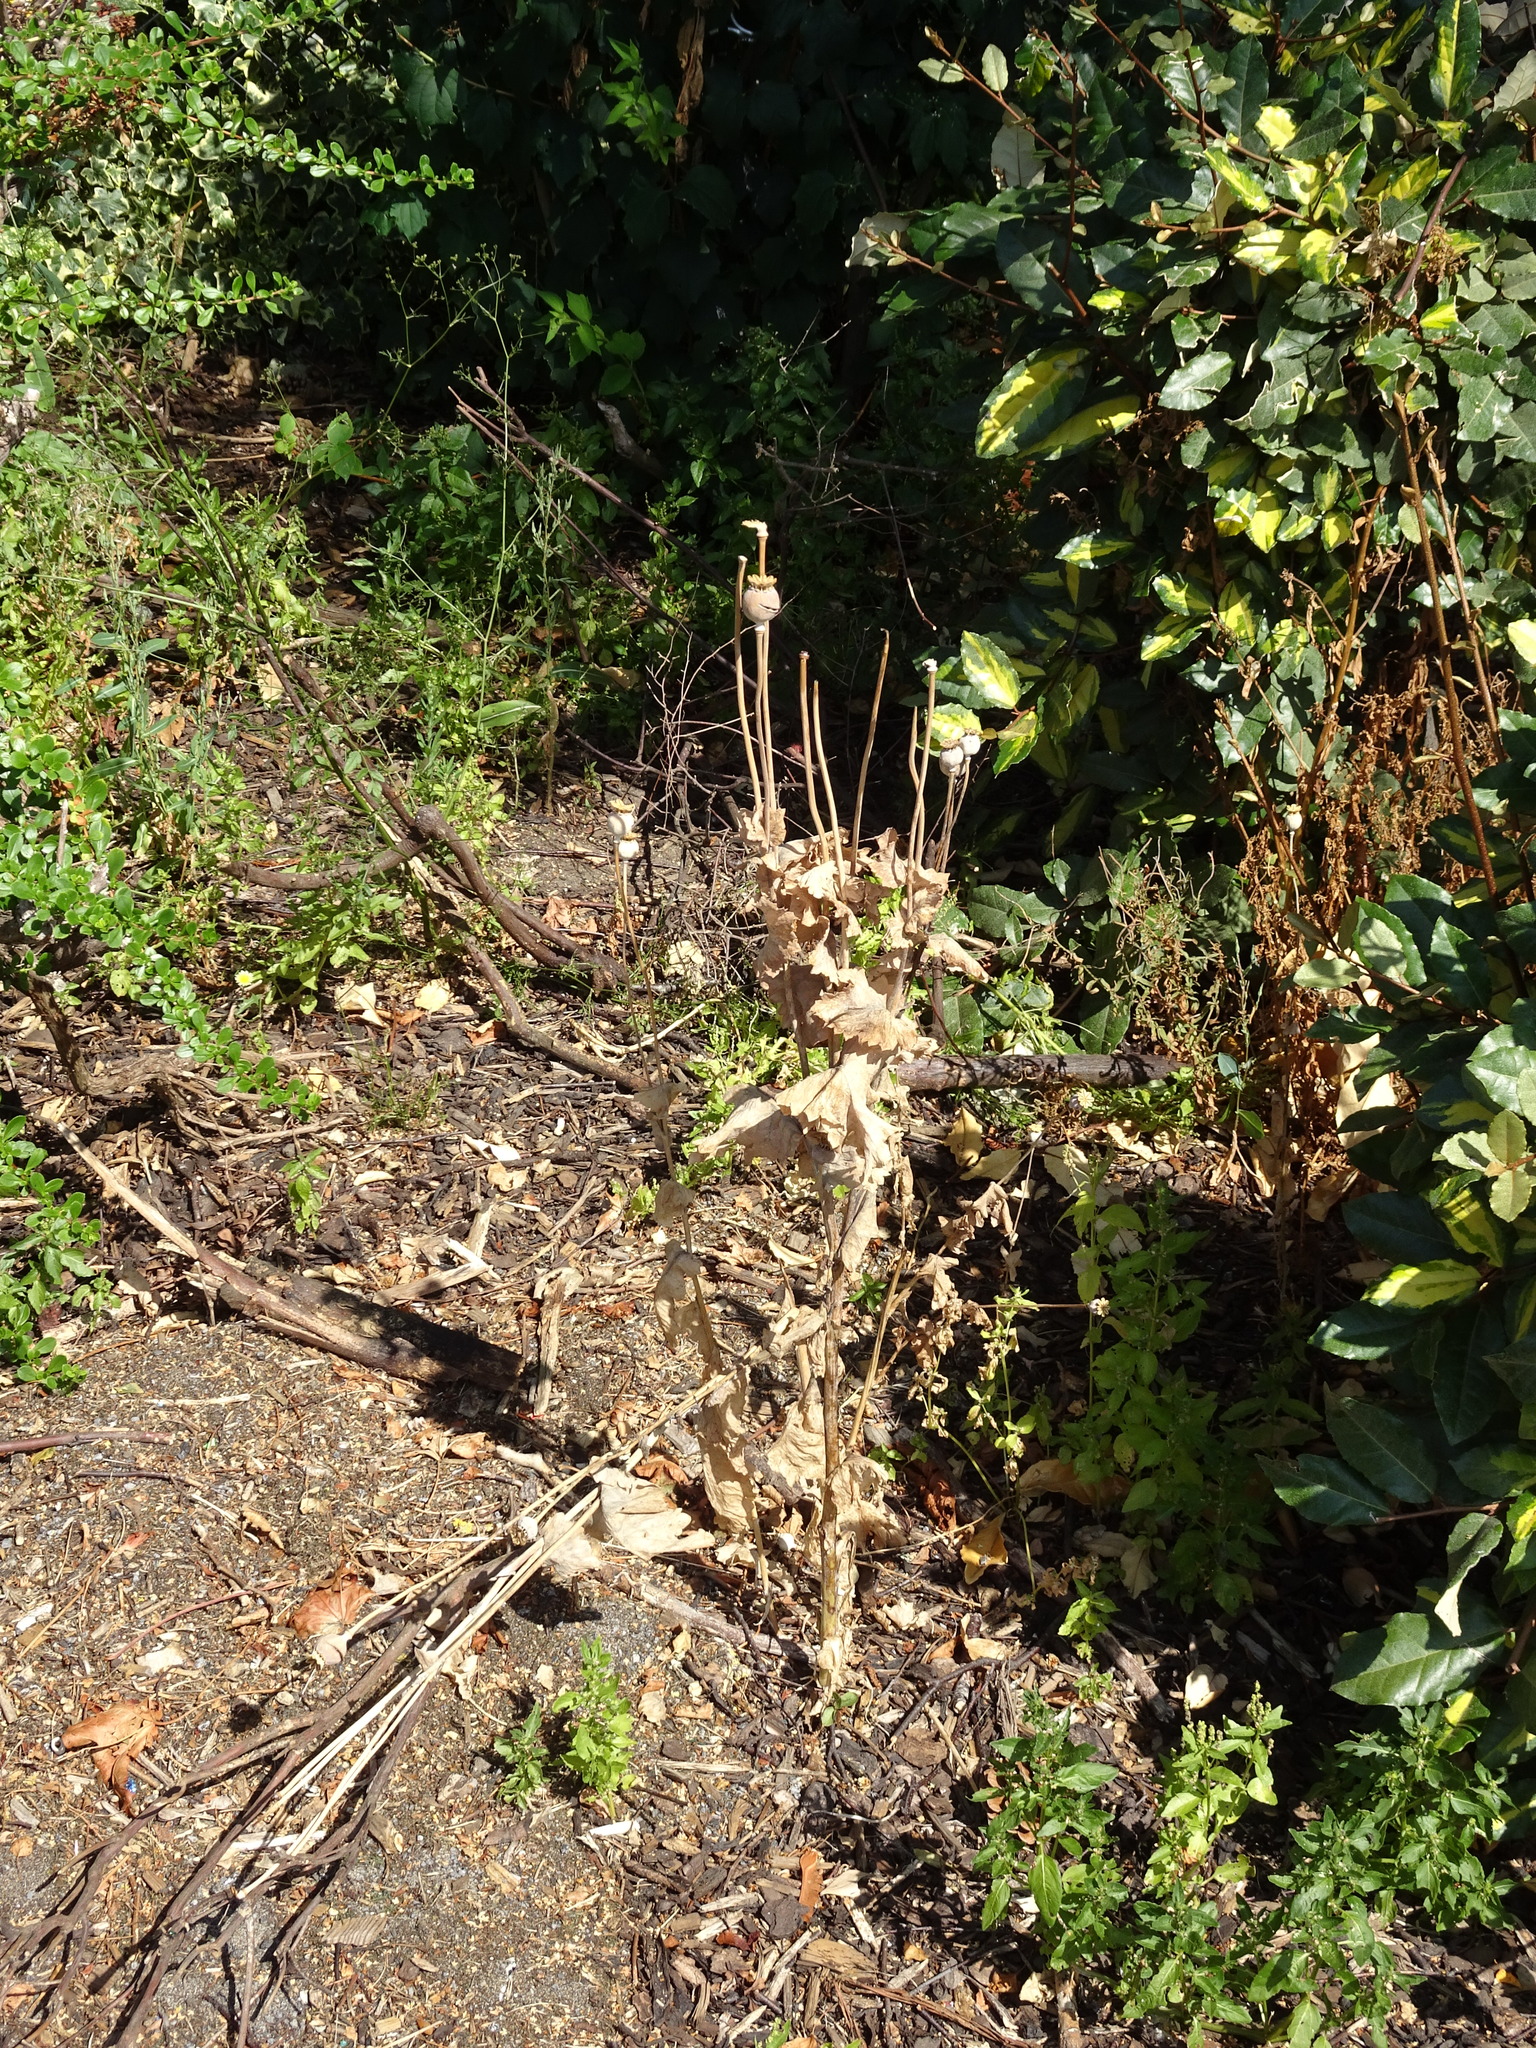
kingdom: Plantae
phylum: Tracheophyta
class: Magnoliopsida
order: Ranunculales
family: Papaveraceae
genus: Papaver
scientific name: Papaver somniferum
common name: Opium poppy
